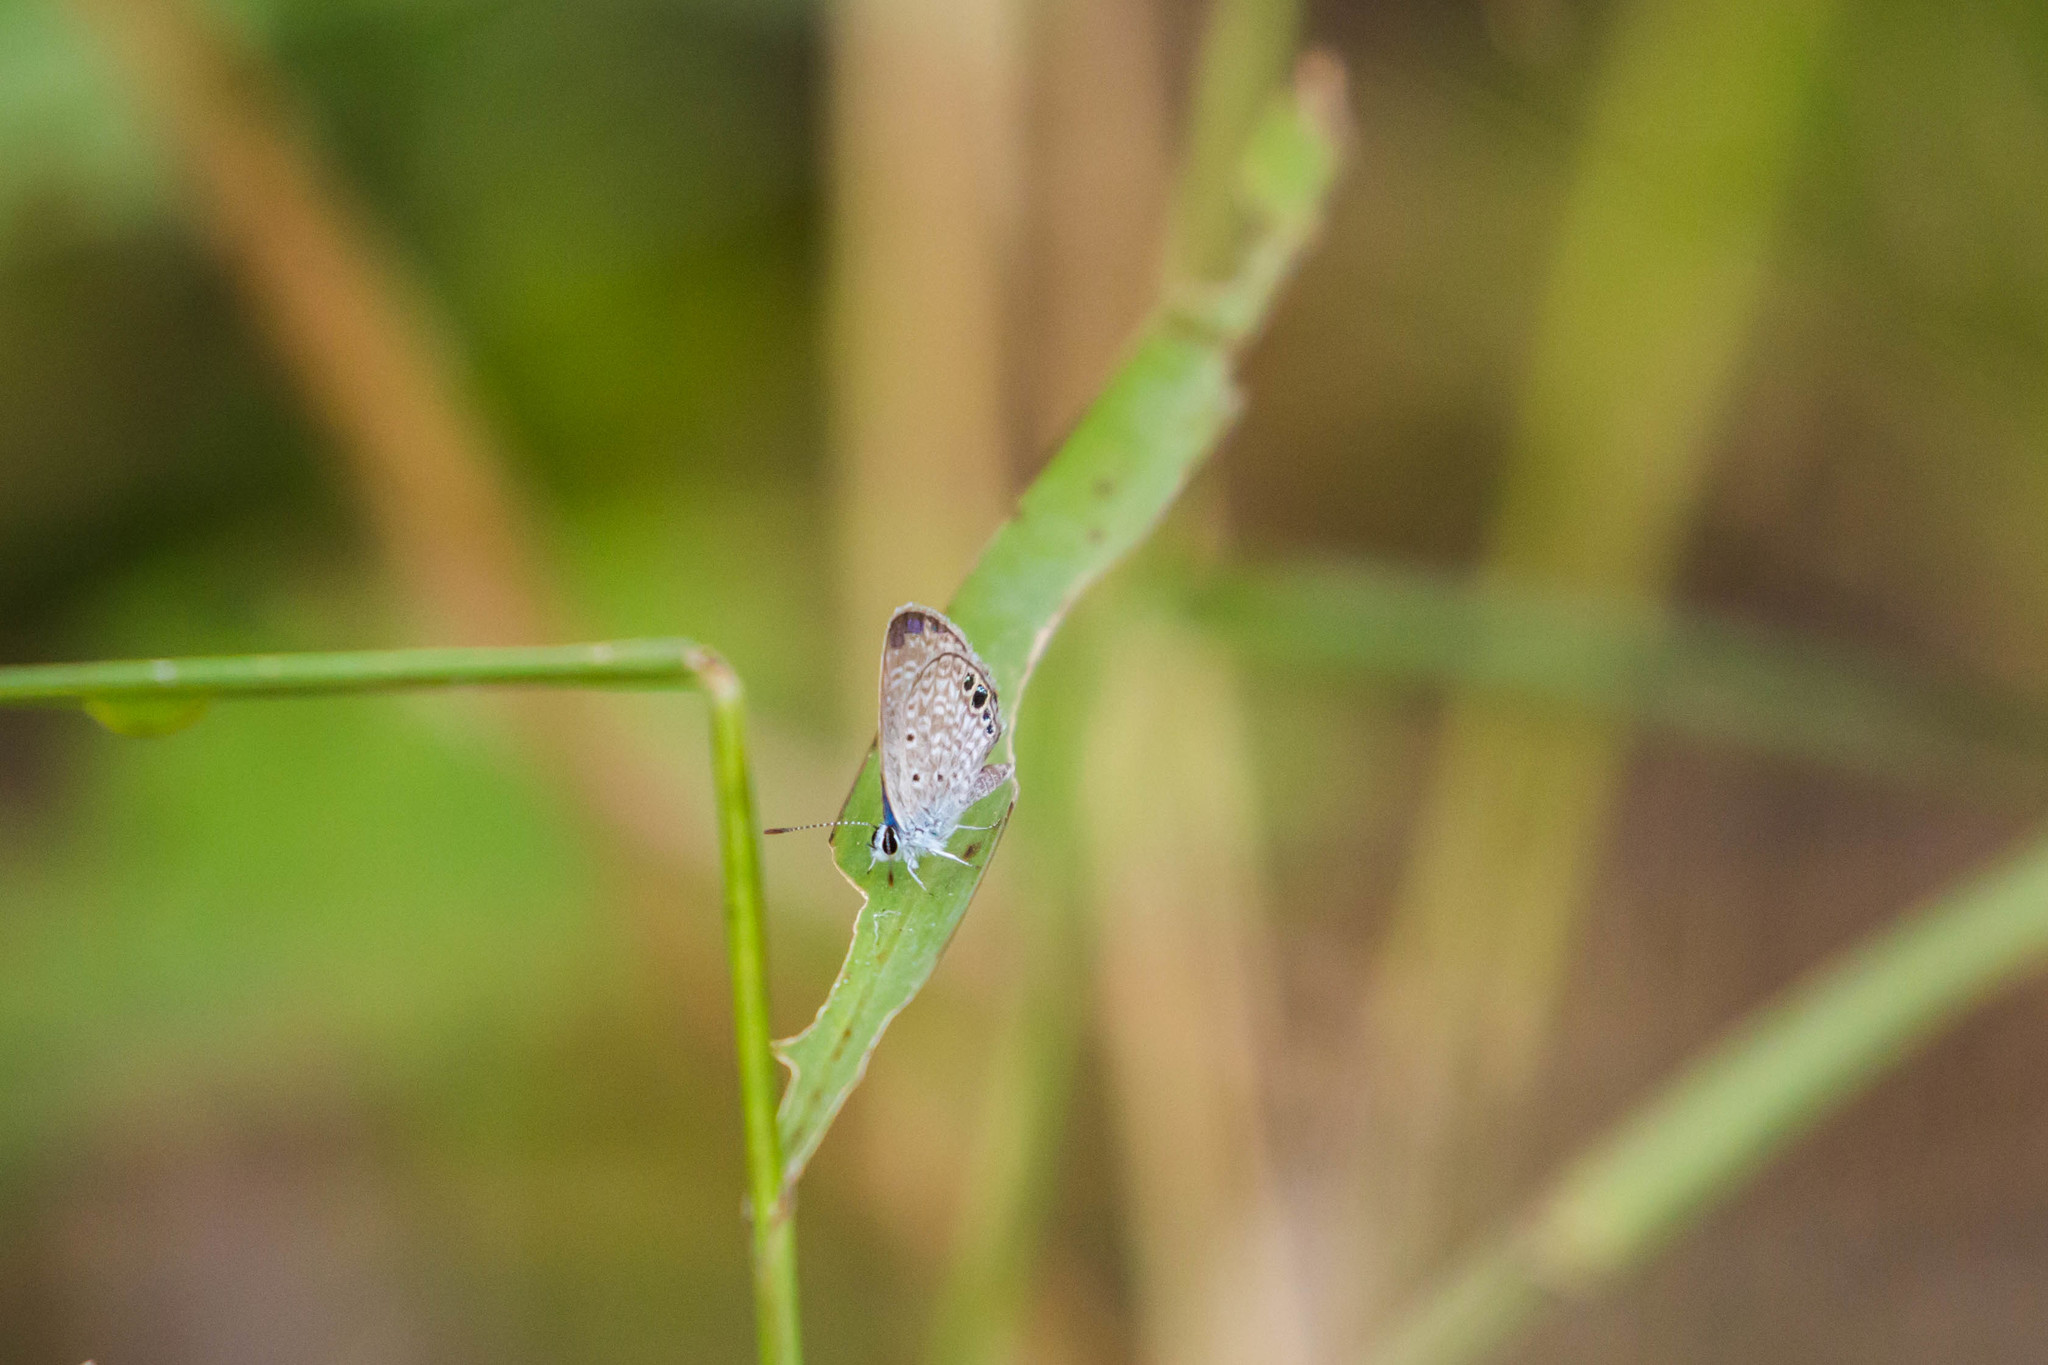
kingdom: Animalia
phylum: Arthropoda
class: Insecta
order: Lepidoptera
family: Lycaenidae
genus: Hemiargus
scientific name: Hemiargus ceraunus
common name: Ceraunus blue
